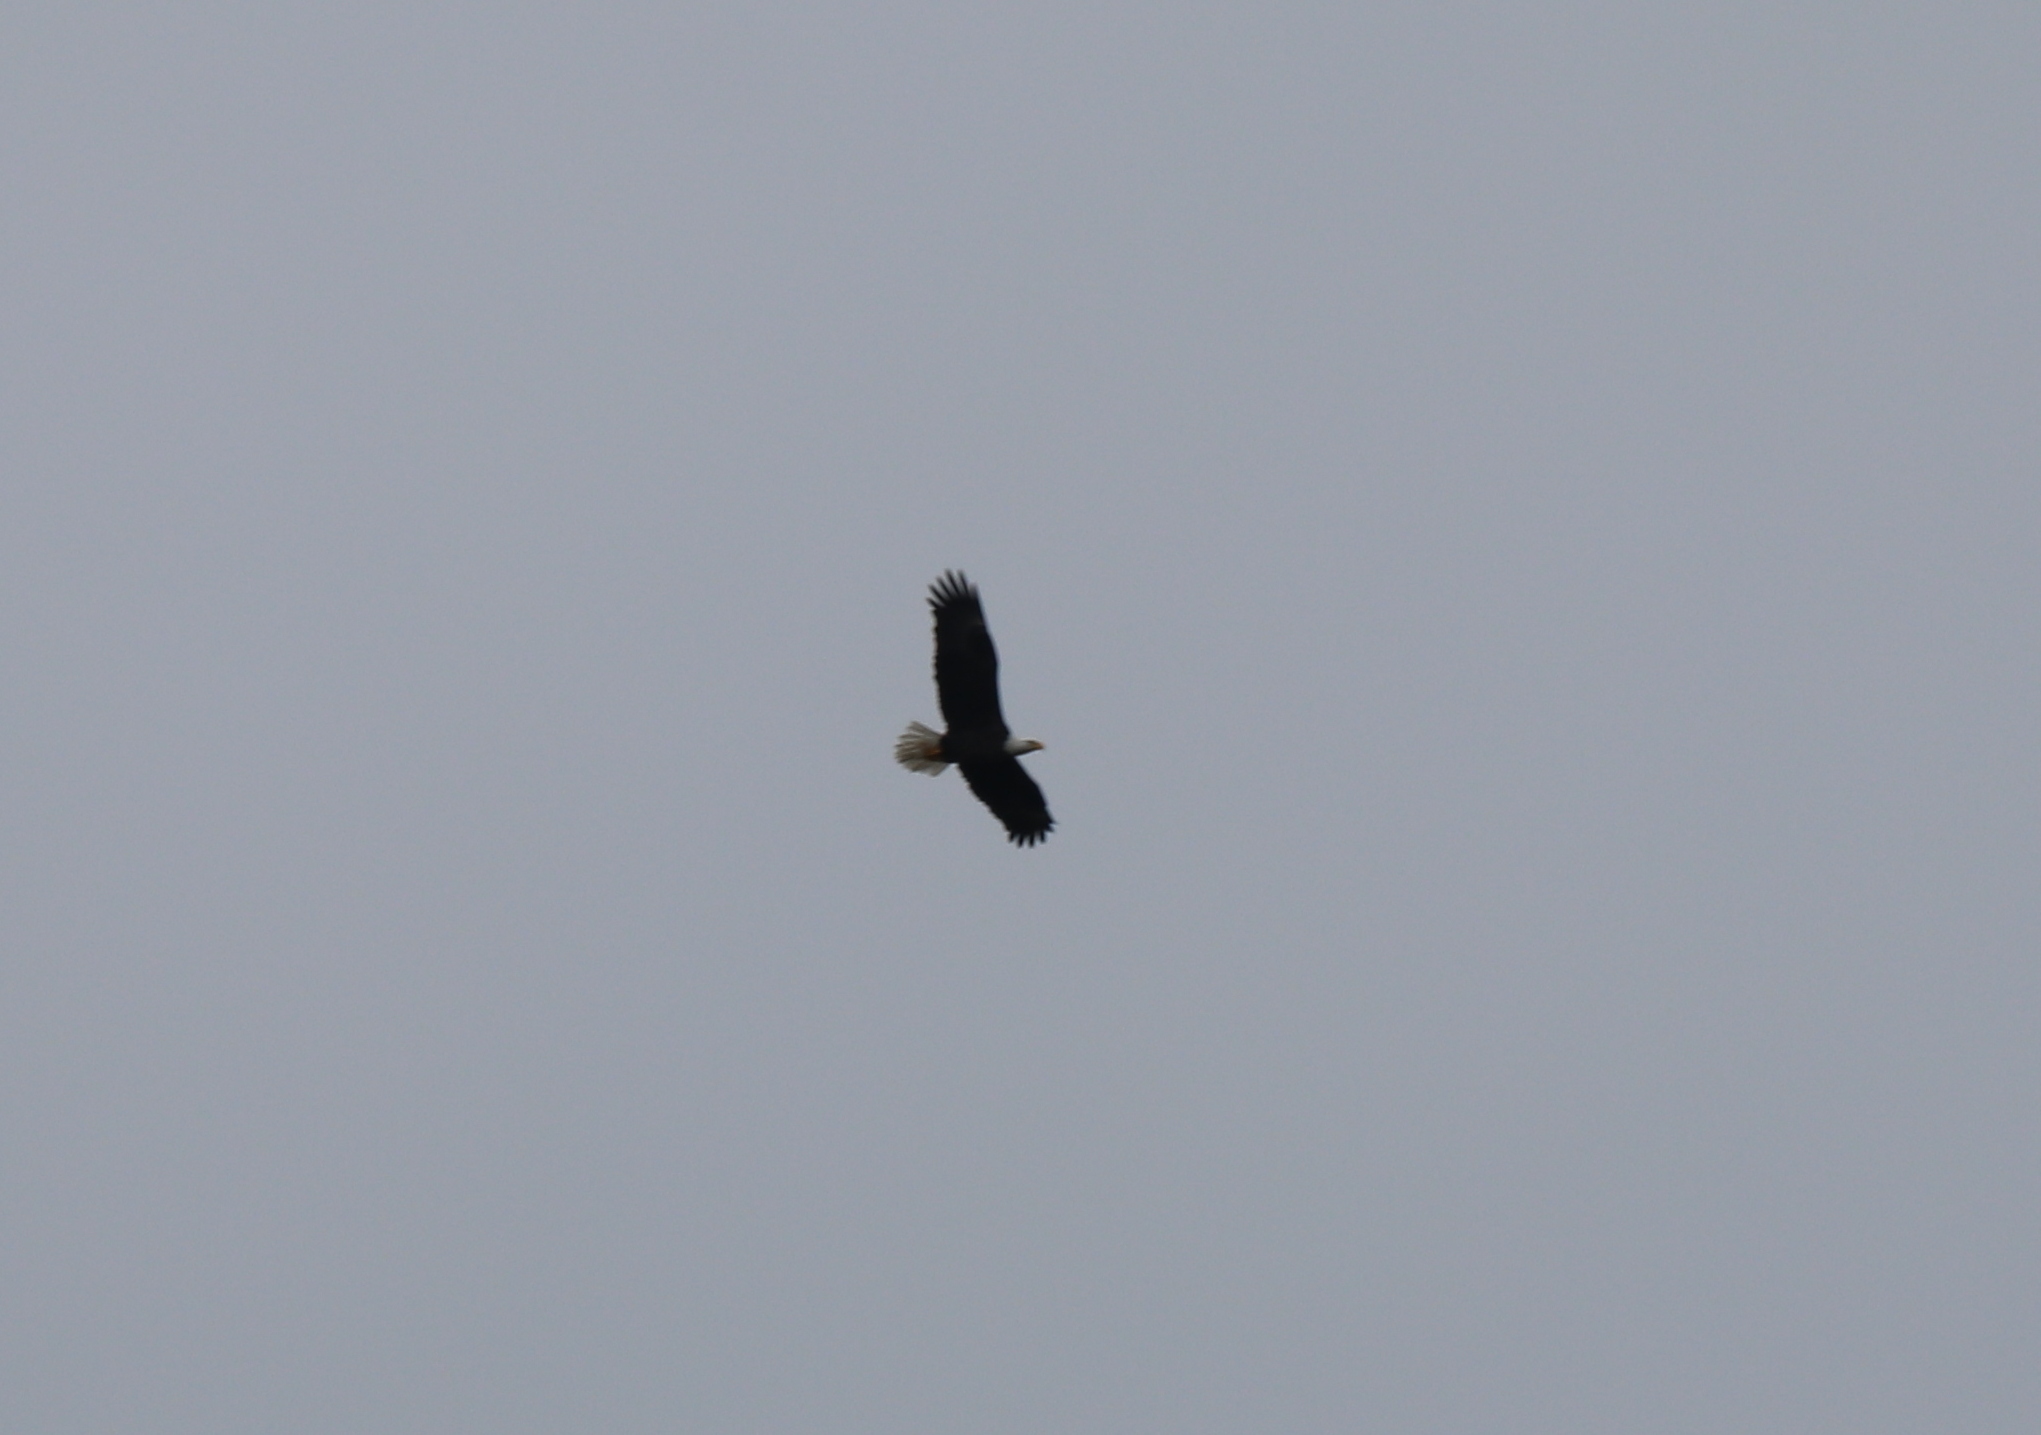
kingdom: Animalia
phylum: Chordata
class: Aves
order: Accipitriformes
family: Accipitridae
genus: Haliaeetus
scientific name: Haliaeetus leucocephalus
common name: Bald eagle
